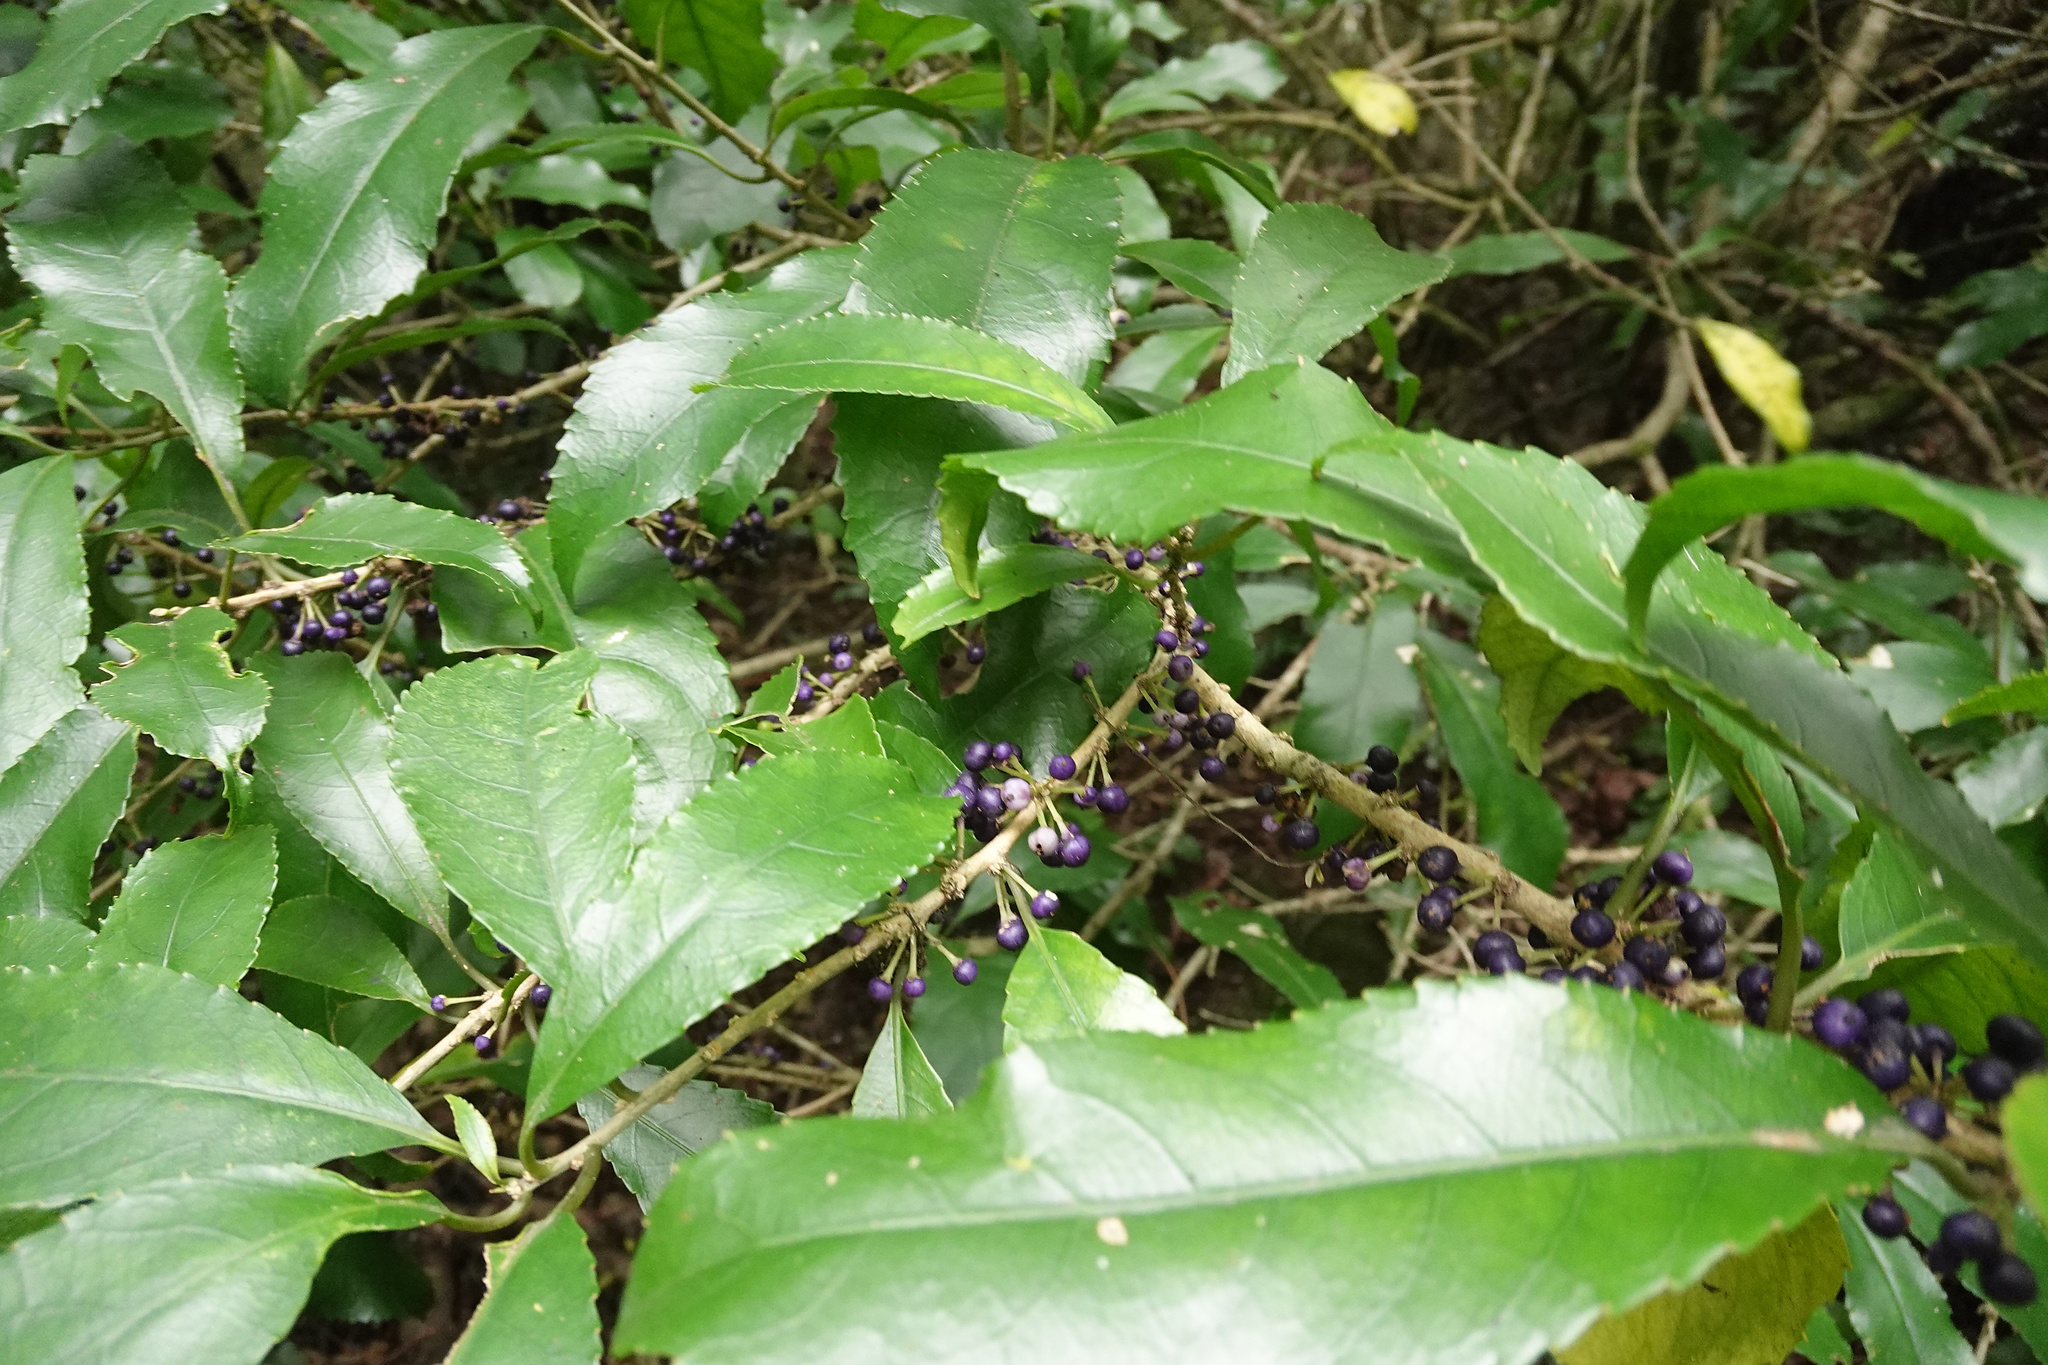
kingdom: Plantae
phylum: Tracheophyta
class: Magnoliopsida
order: Malpighiales
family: Violaceae
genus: Melicytus
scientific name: Melicytus ramiflorus
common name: Mahoe
